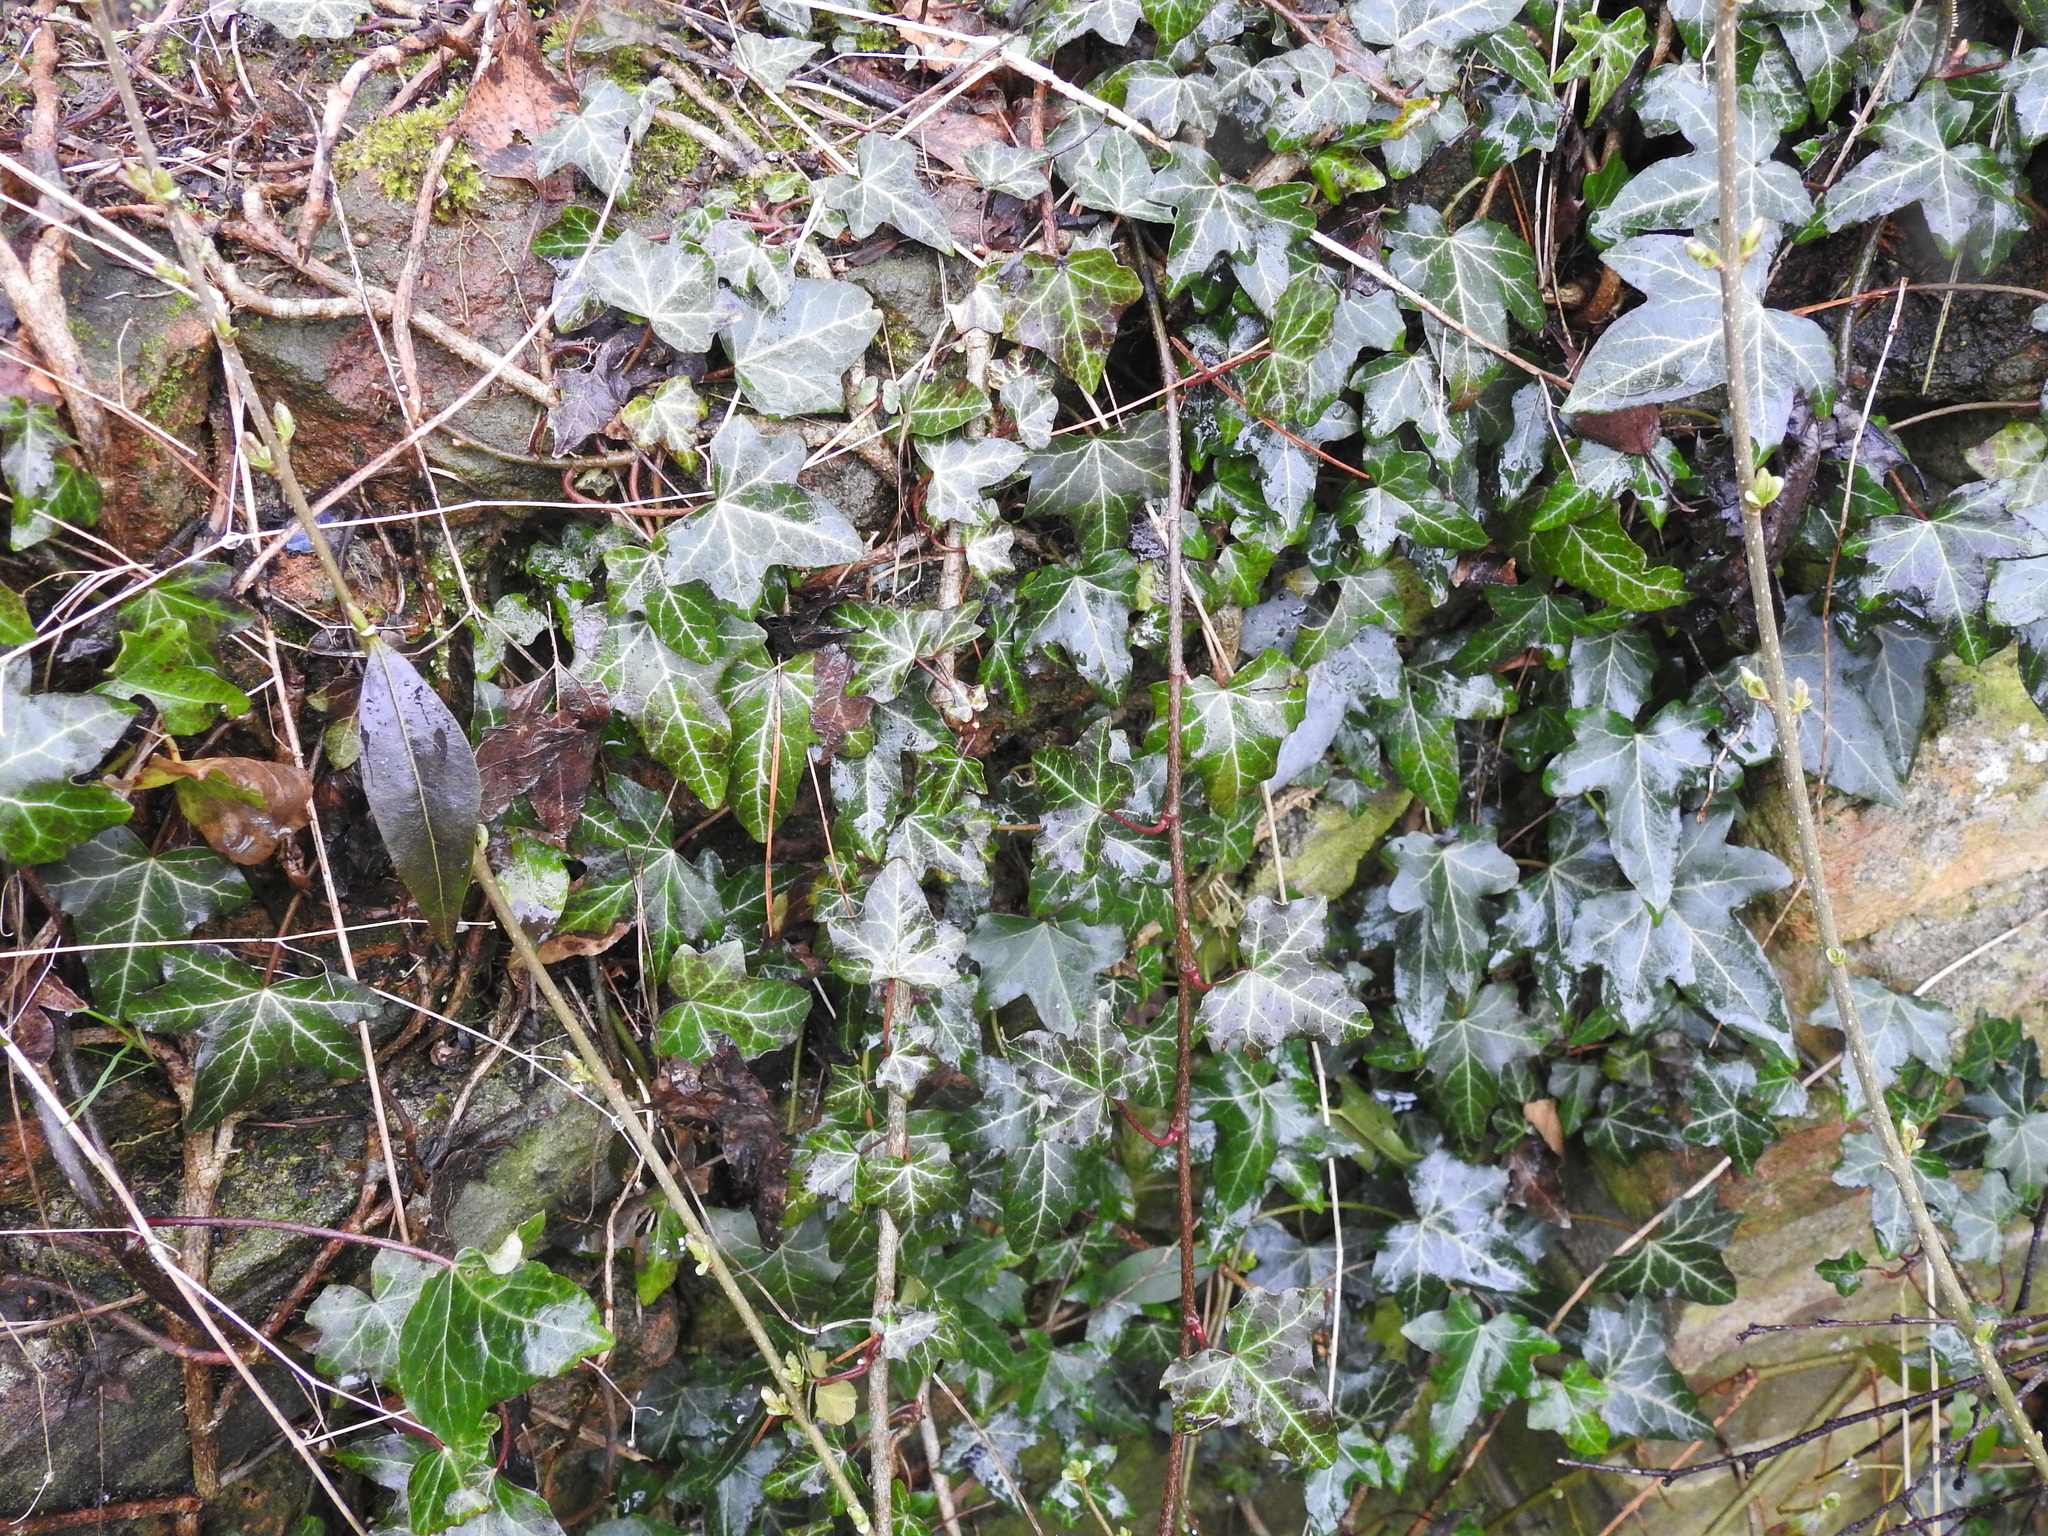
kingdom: Plantae
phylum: Tracheophyta
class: Magnoliopsida
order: Apiales
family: Araliaceae
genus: Hedera
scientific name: Hedera helix
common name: Ivy
